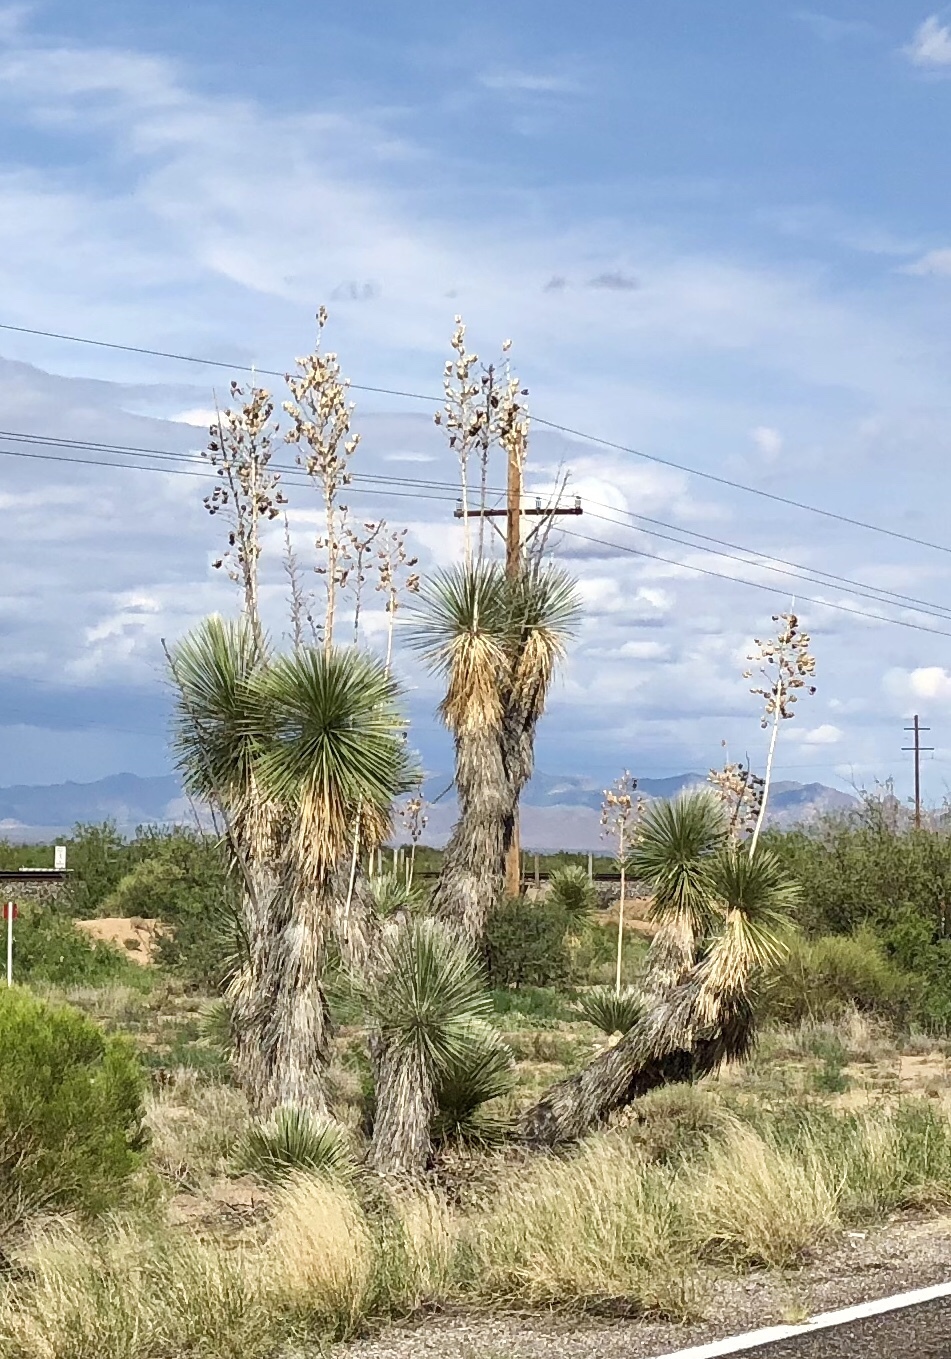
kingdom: Plantae
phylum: Tracheophyta
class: Liliopsida
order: Asparagales
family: Asparagaceae
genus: Yucca
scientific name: Yucca elata
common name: Palmella
